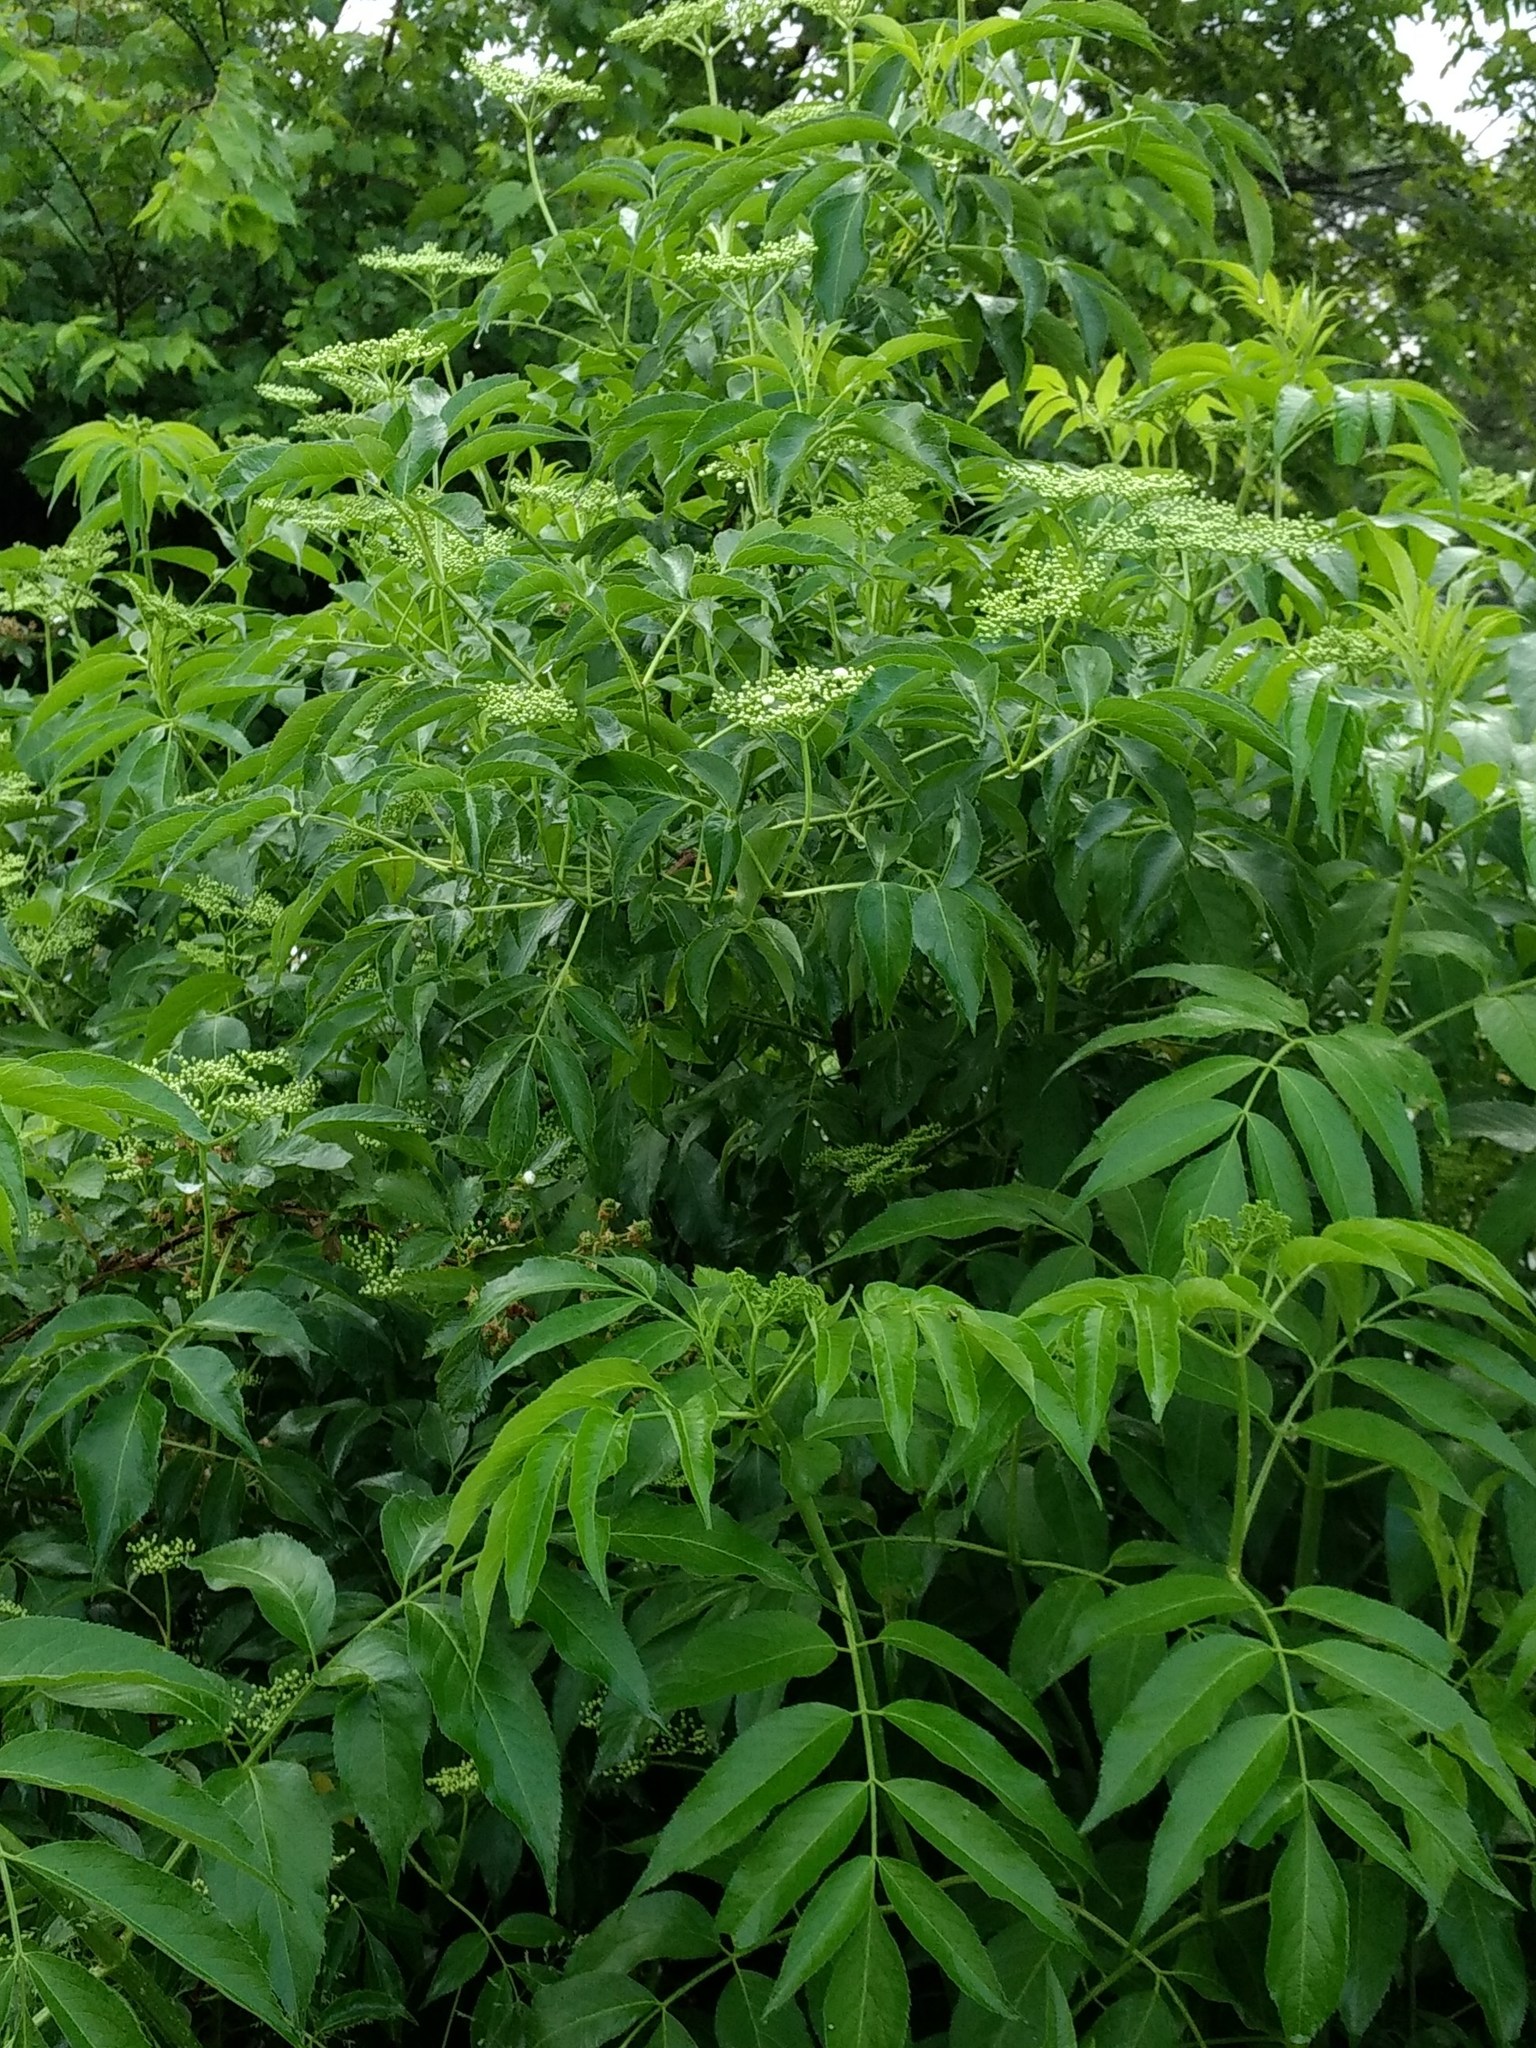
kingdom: Plantae
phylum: Tracheophyta
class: Magnoliopsida
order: Dipsacales
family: Viburnaceae
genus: Sambucus
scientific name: Sambucus canadensis
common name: American elder
